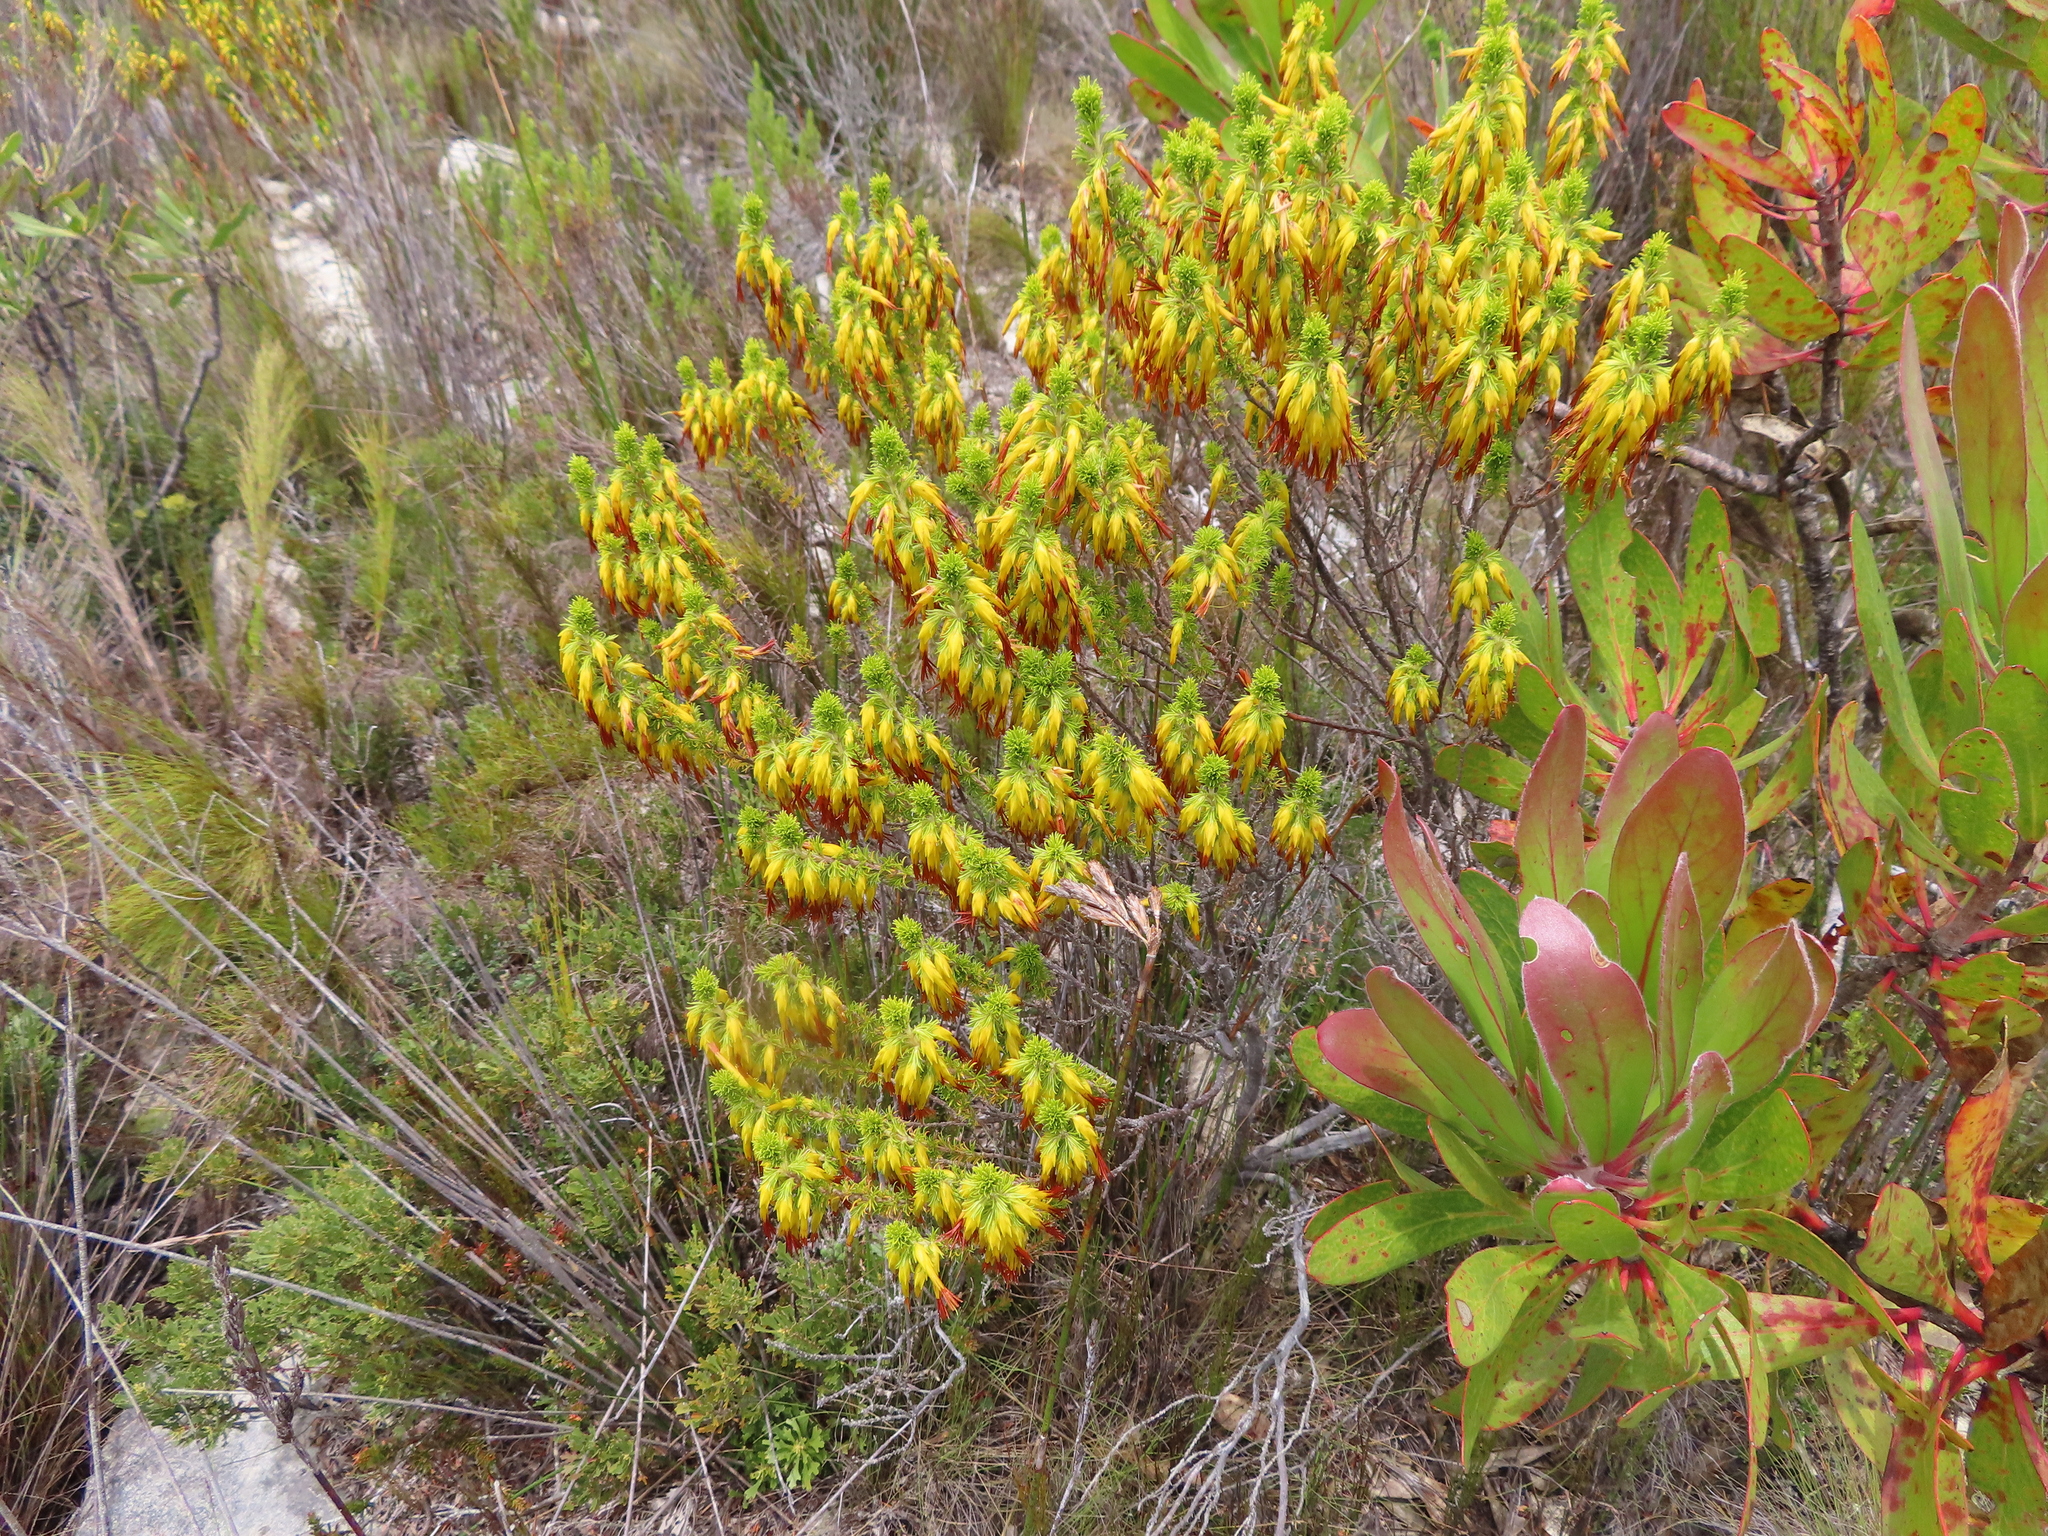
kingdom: Plantae
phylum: Tracheophyta
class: Magnoliopsida
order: Ericales
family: Ericaceae
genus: Erica
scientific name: Erica coccinea
